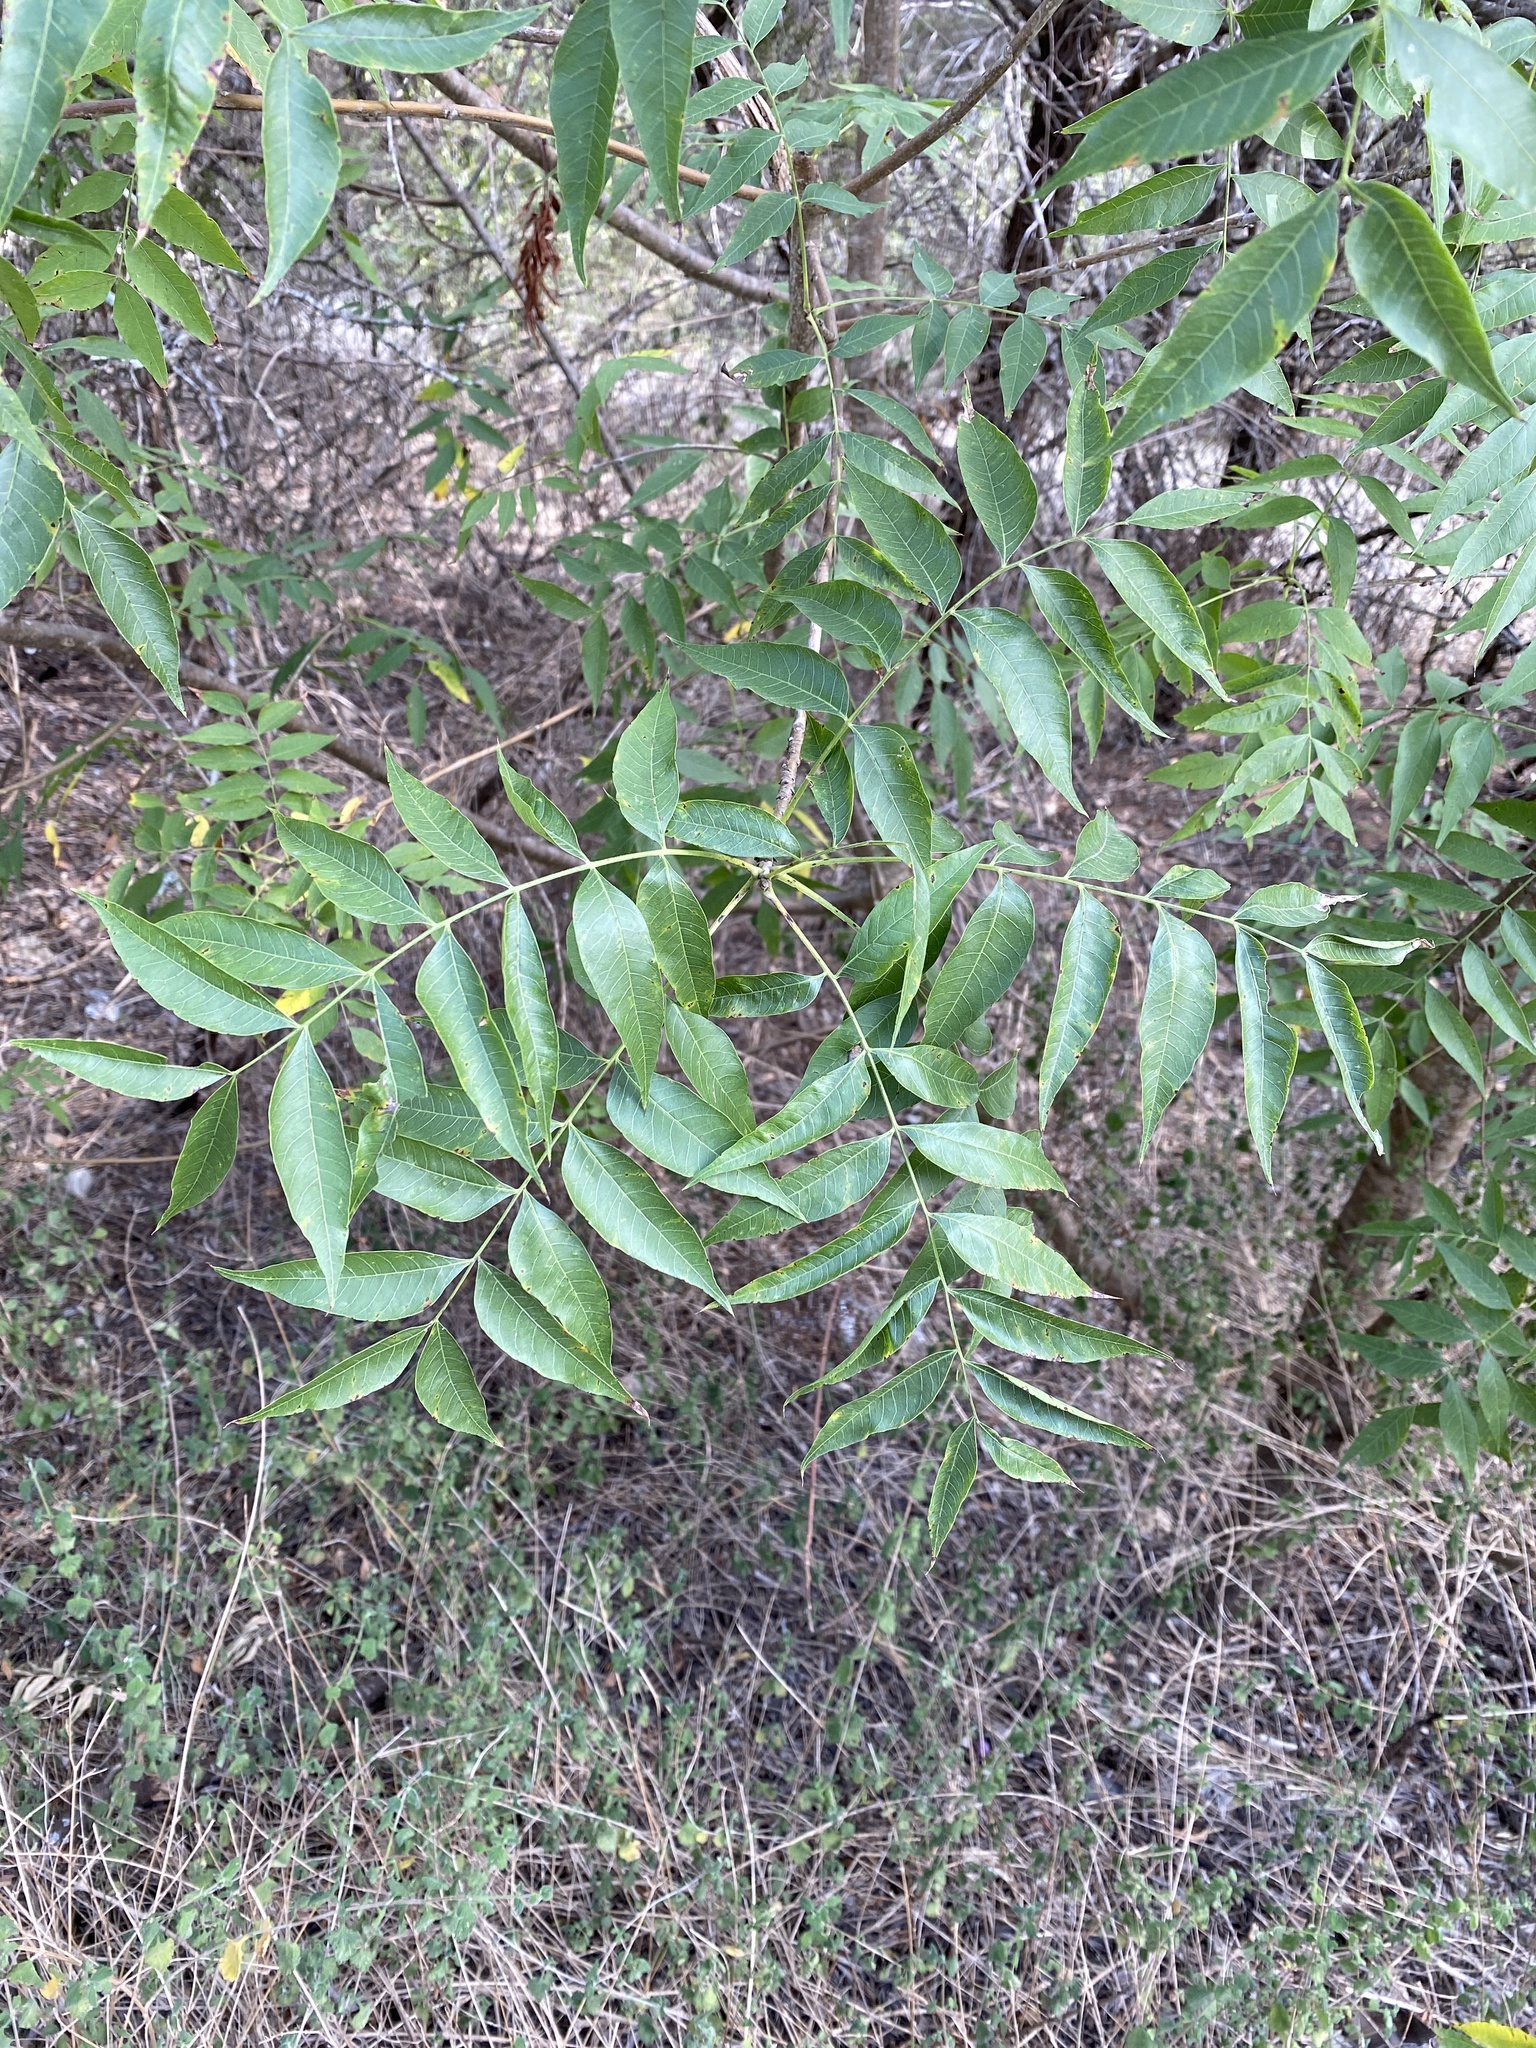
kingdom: Plantae
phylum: Tracheophyta
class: Magnoliopsida
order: Sapindales
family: Anacardiaceae
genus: Pistacia
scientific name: Pistacia chinensis
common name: Chinese pistache
